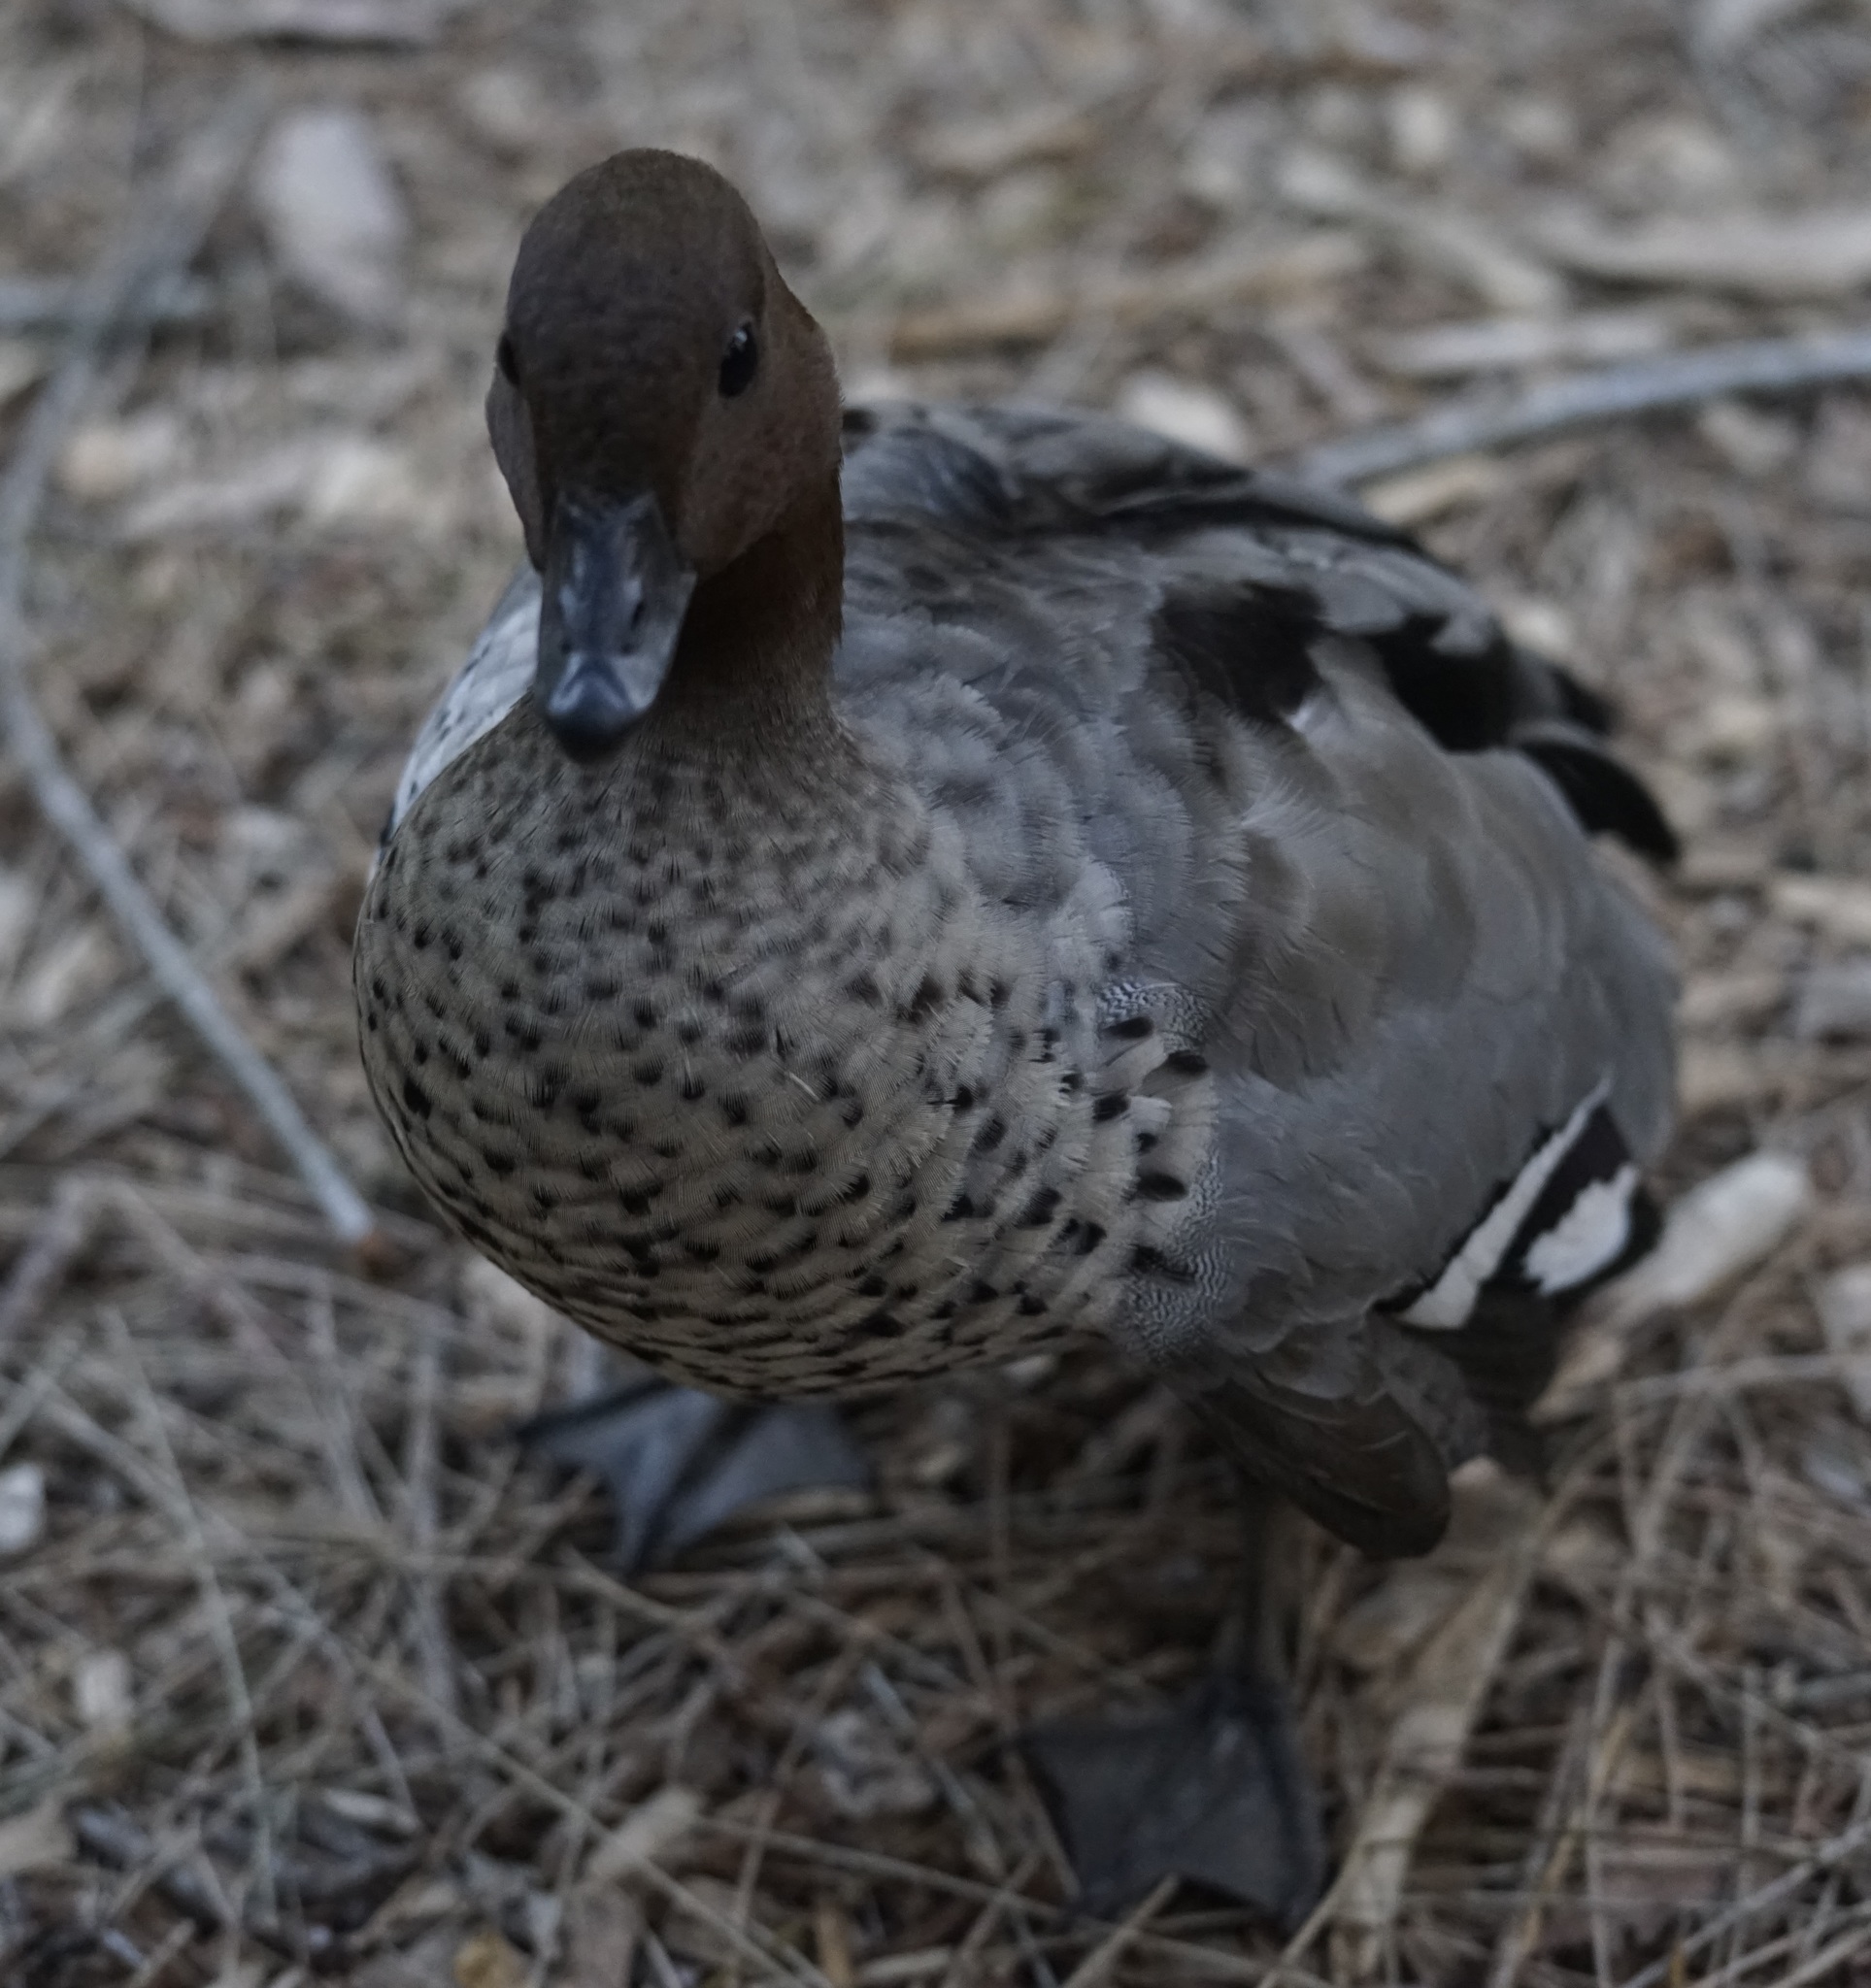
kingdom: Animalia
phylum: Chordata
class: Aves
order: Anseriformes
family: Anatidae
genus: Chenonetta
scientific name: Chenonetta jubata
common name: Maned duck
